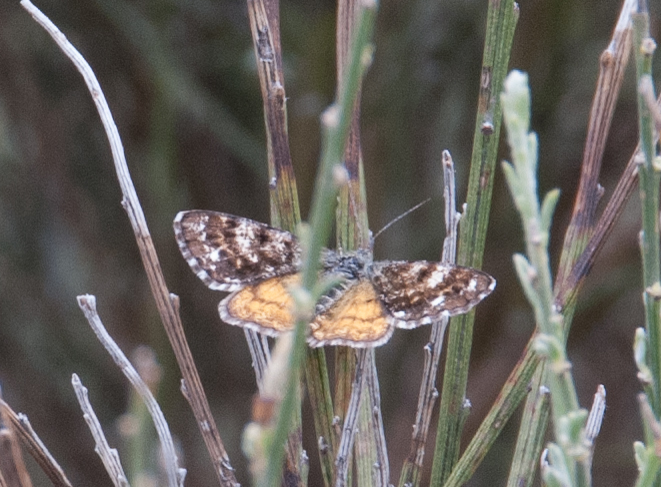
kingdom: Animalia
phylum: Arthropoda
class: Insecta
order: Lepidoptera
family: Geometridae
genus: Isturgia
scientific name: Isturgia famula
